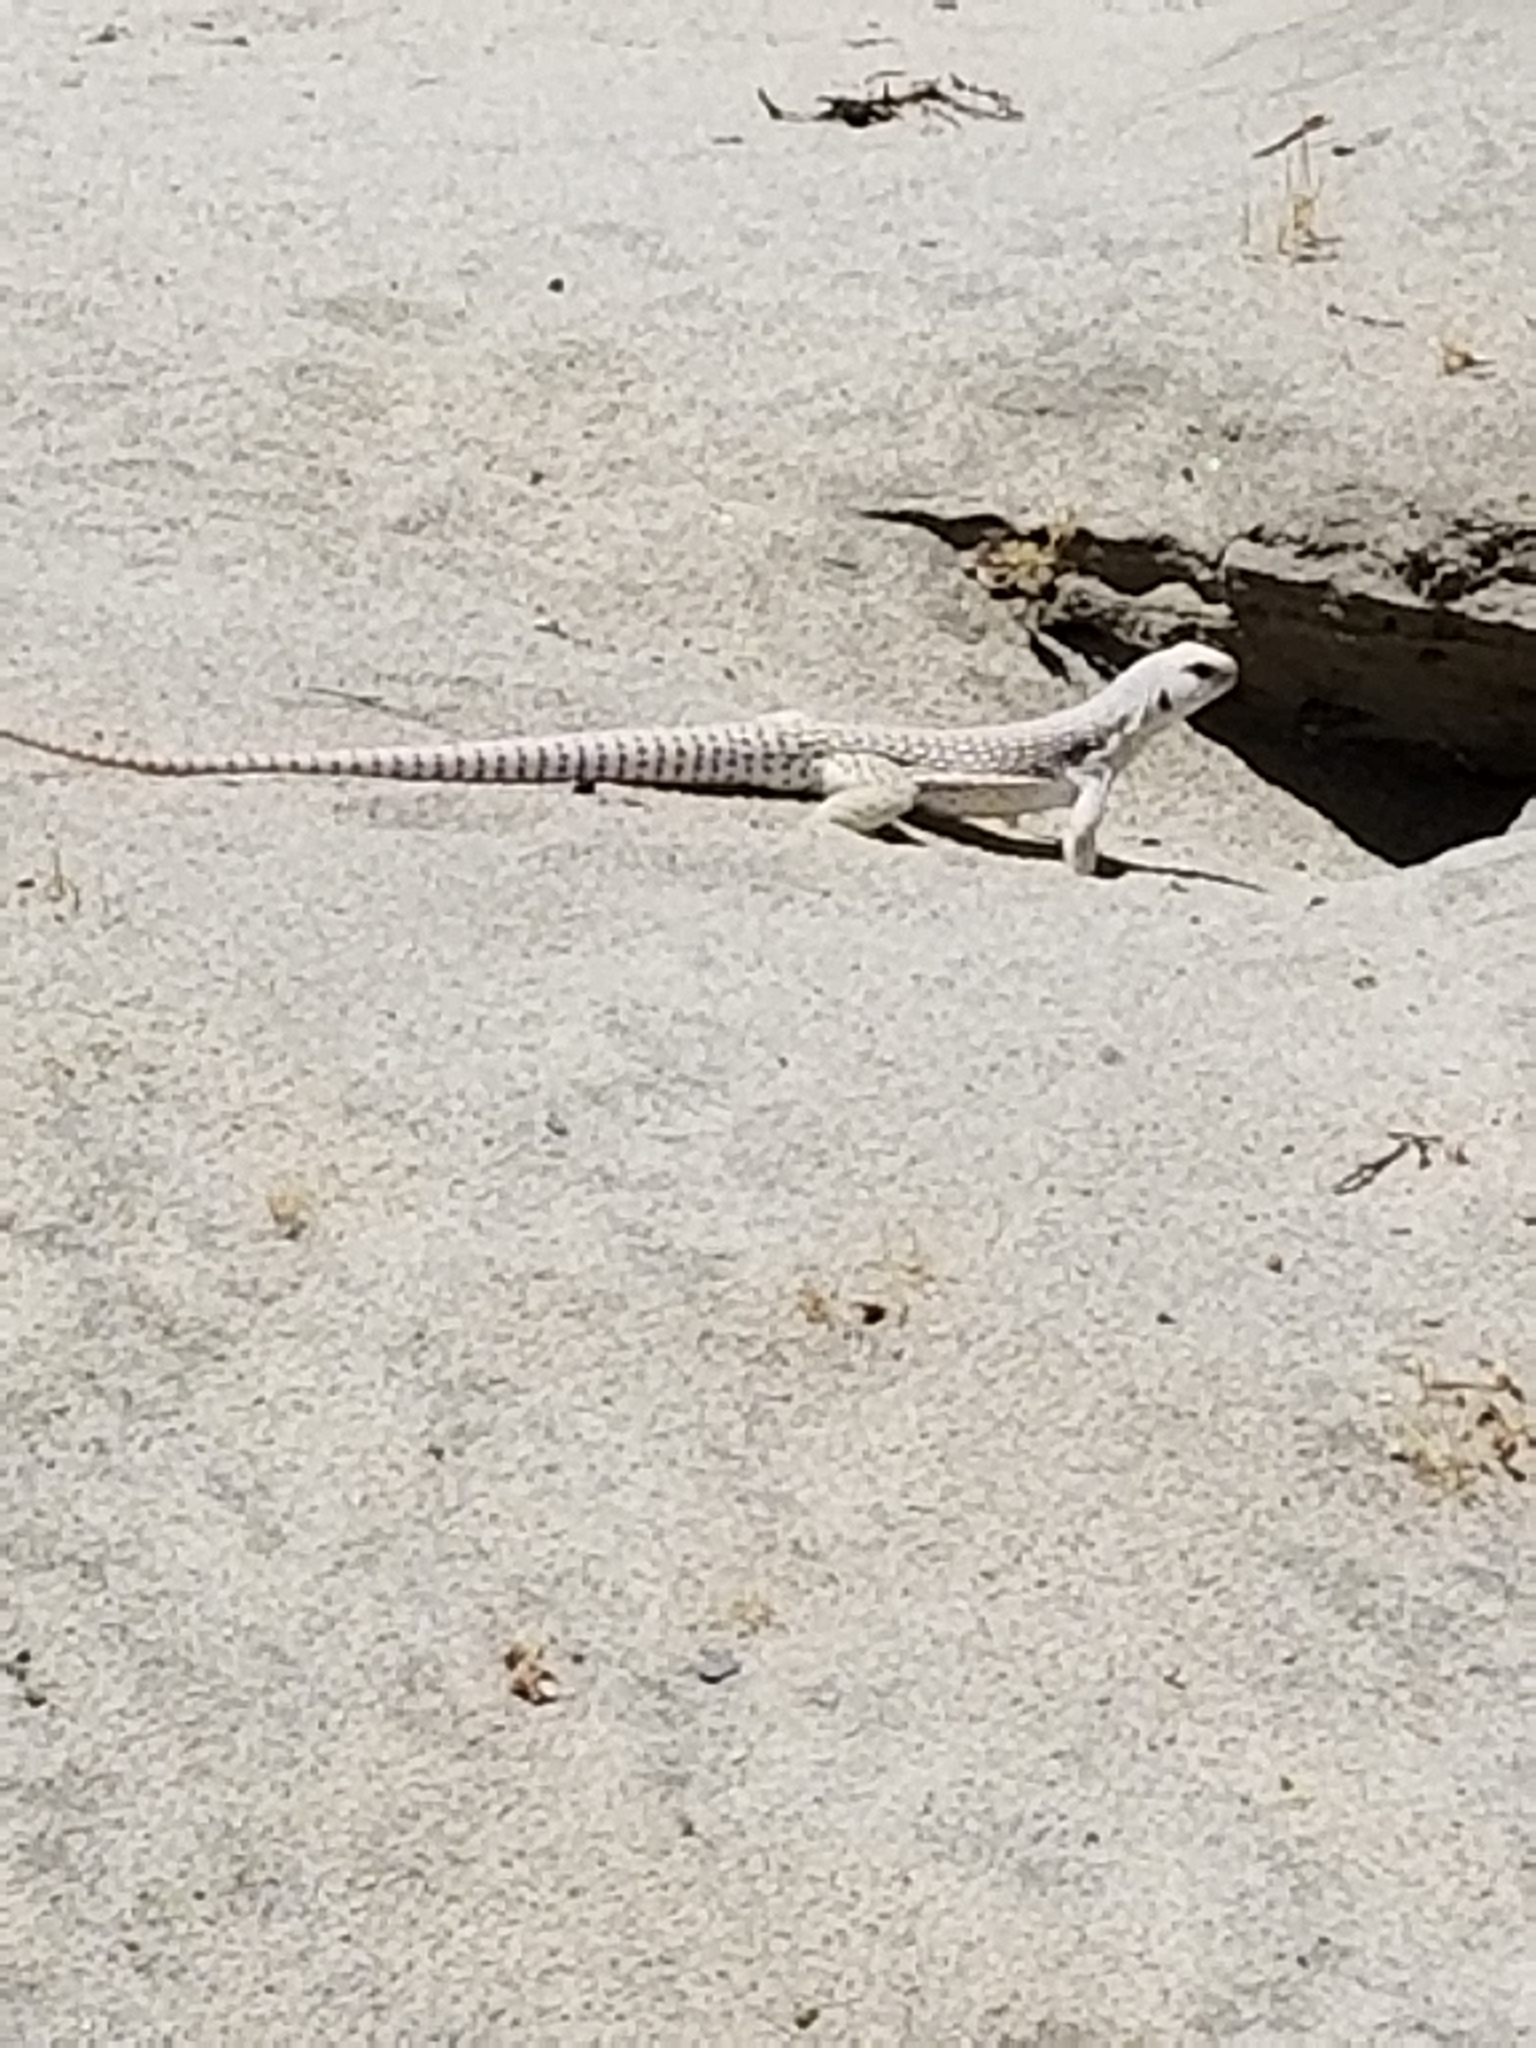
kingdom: Animalia
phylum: Chordata
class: Squamata
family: Iguanidae
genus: Dipsosaurus
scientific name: Dipsosaurus dorsalis
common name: Desert iguana
